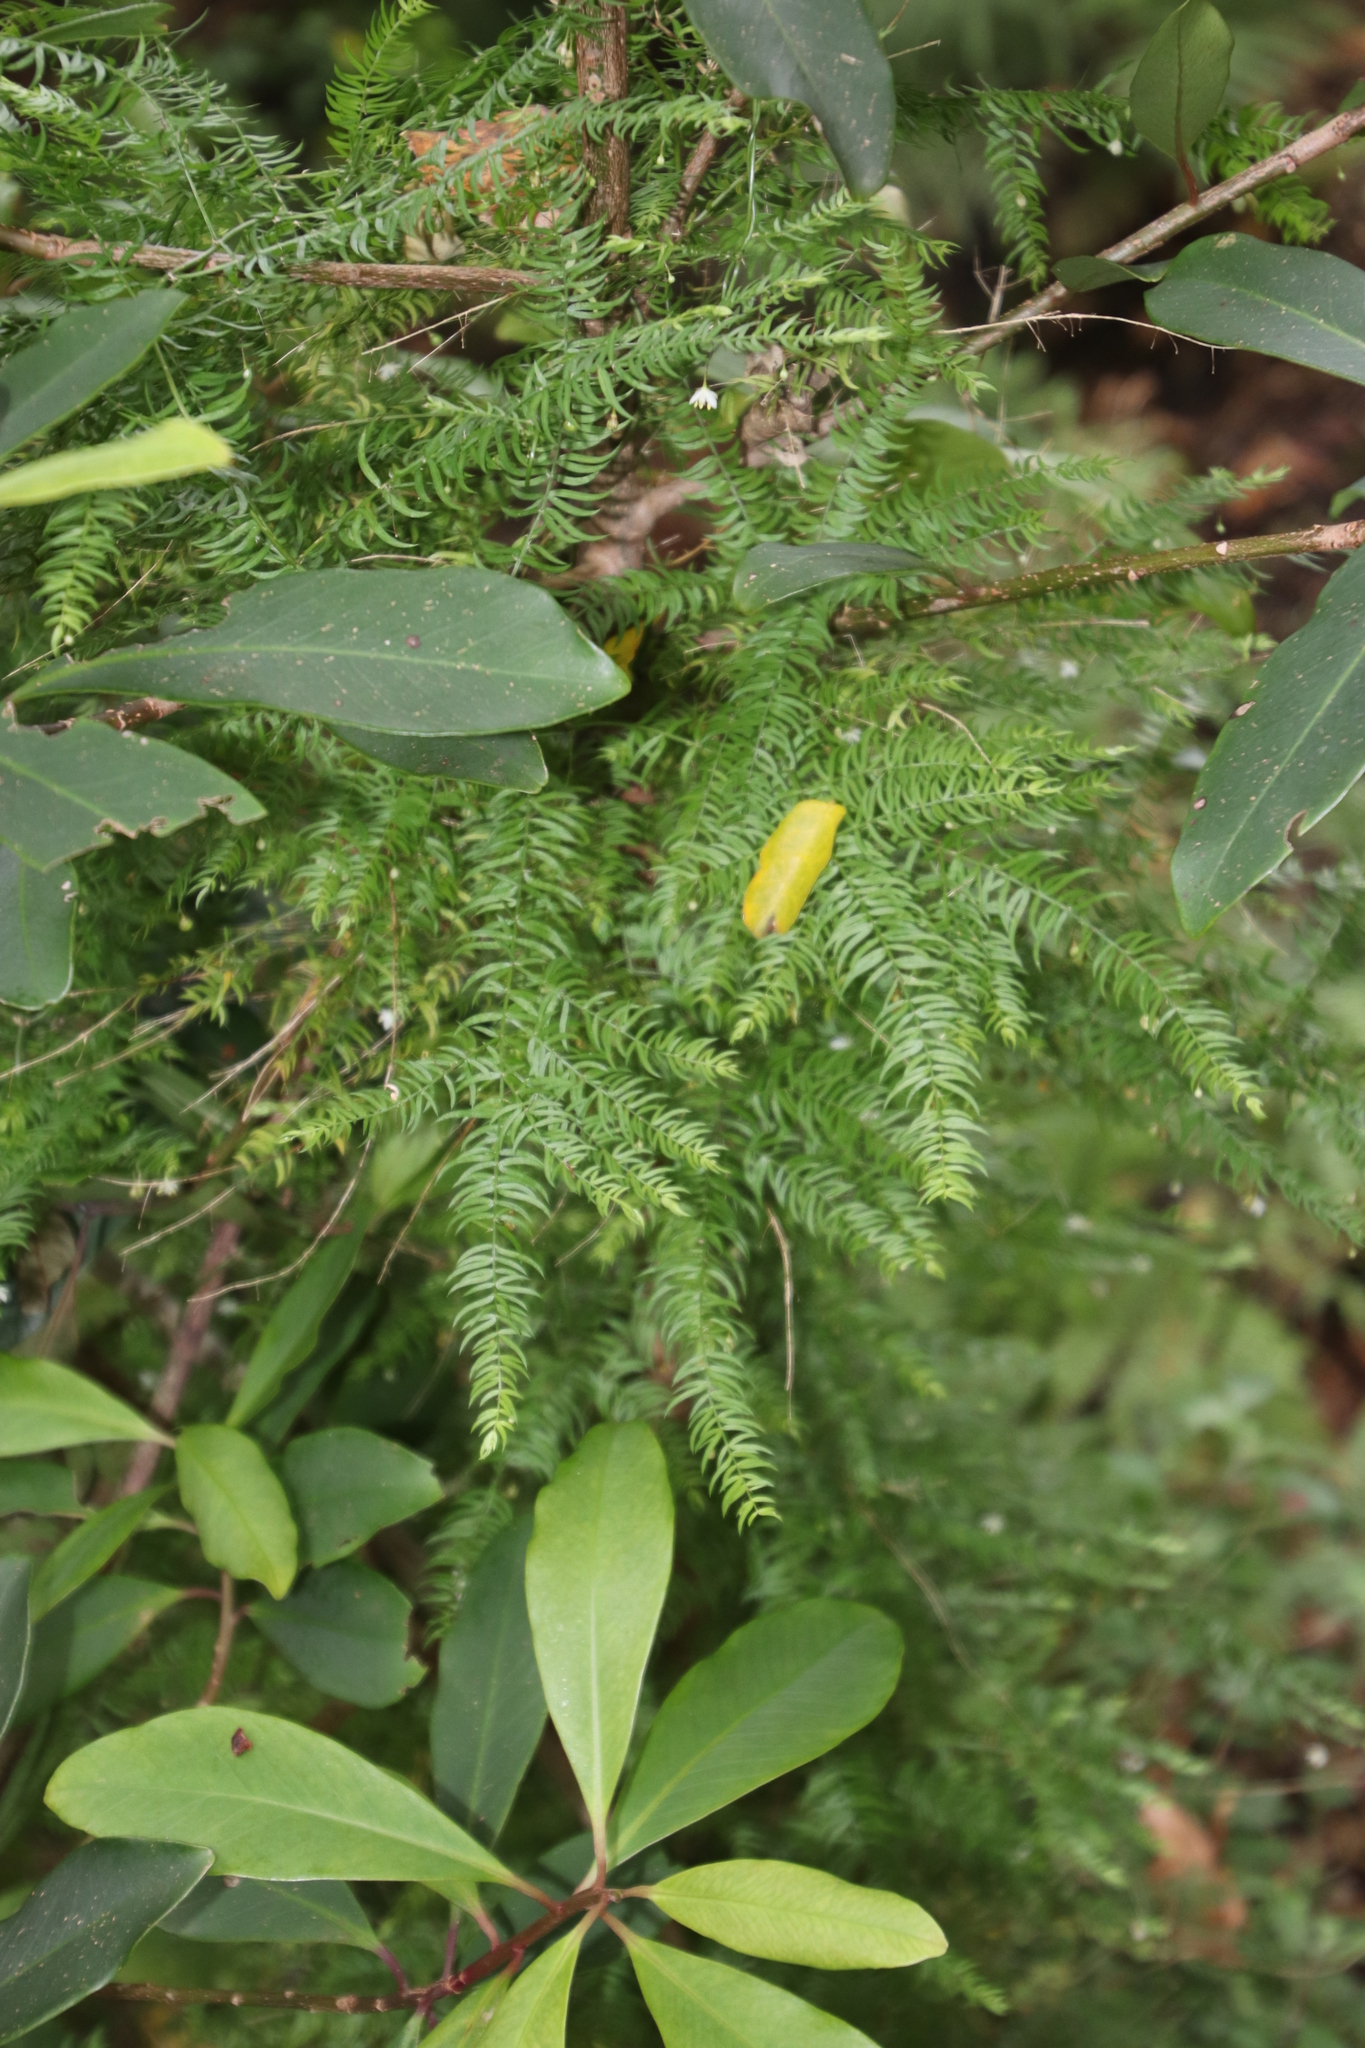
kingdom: Plantae
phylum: Tracheophyta
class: Liliopsida
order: Asparagales
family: Asparagaceae
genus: Asparagus
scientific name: Asparagus scandens
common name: Asparagus-fern
